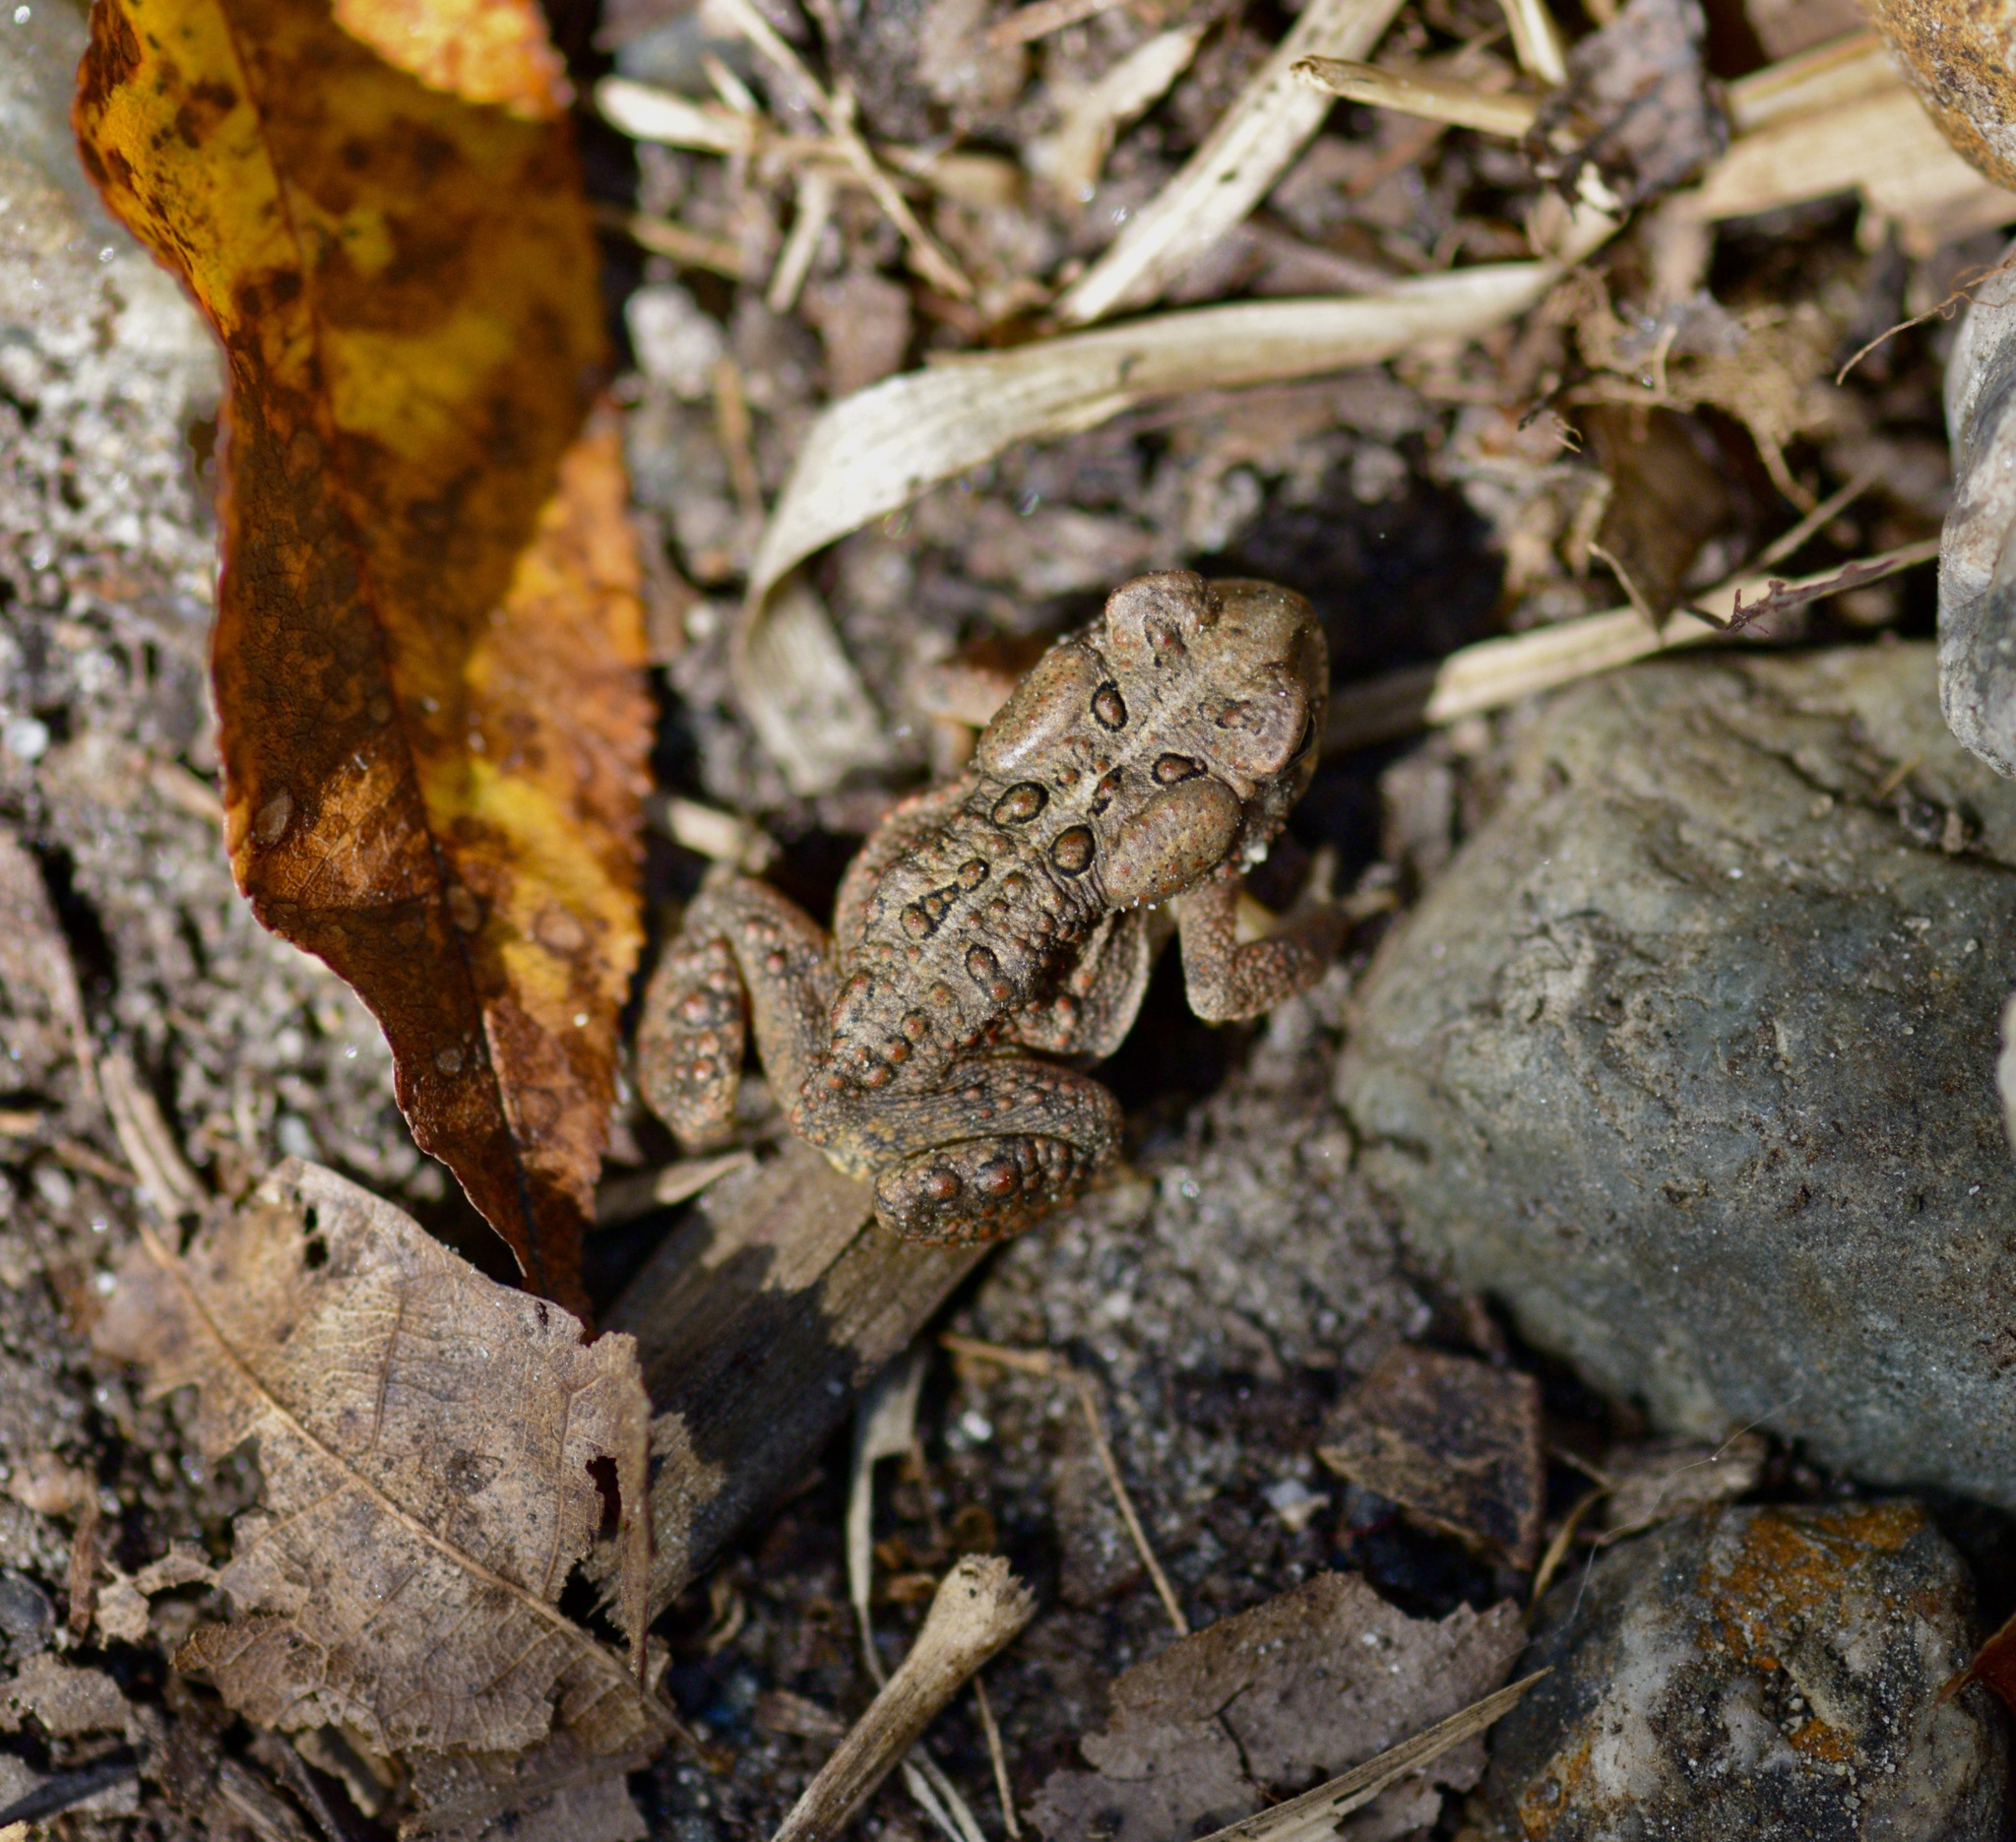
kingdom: Animalia
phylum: Chordata
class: Amphibia
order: Anura
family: Bufonidae
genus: Anaxyrus
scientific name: Anaxyrus americanus
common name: American toad
